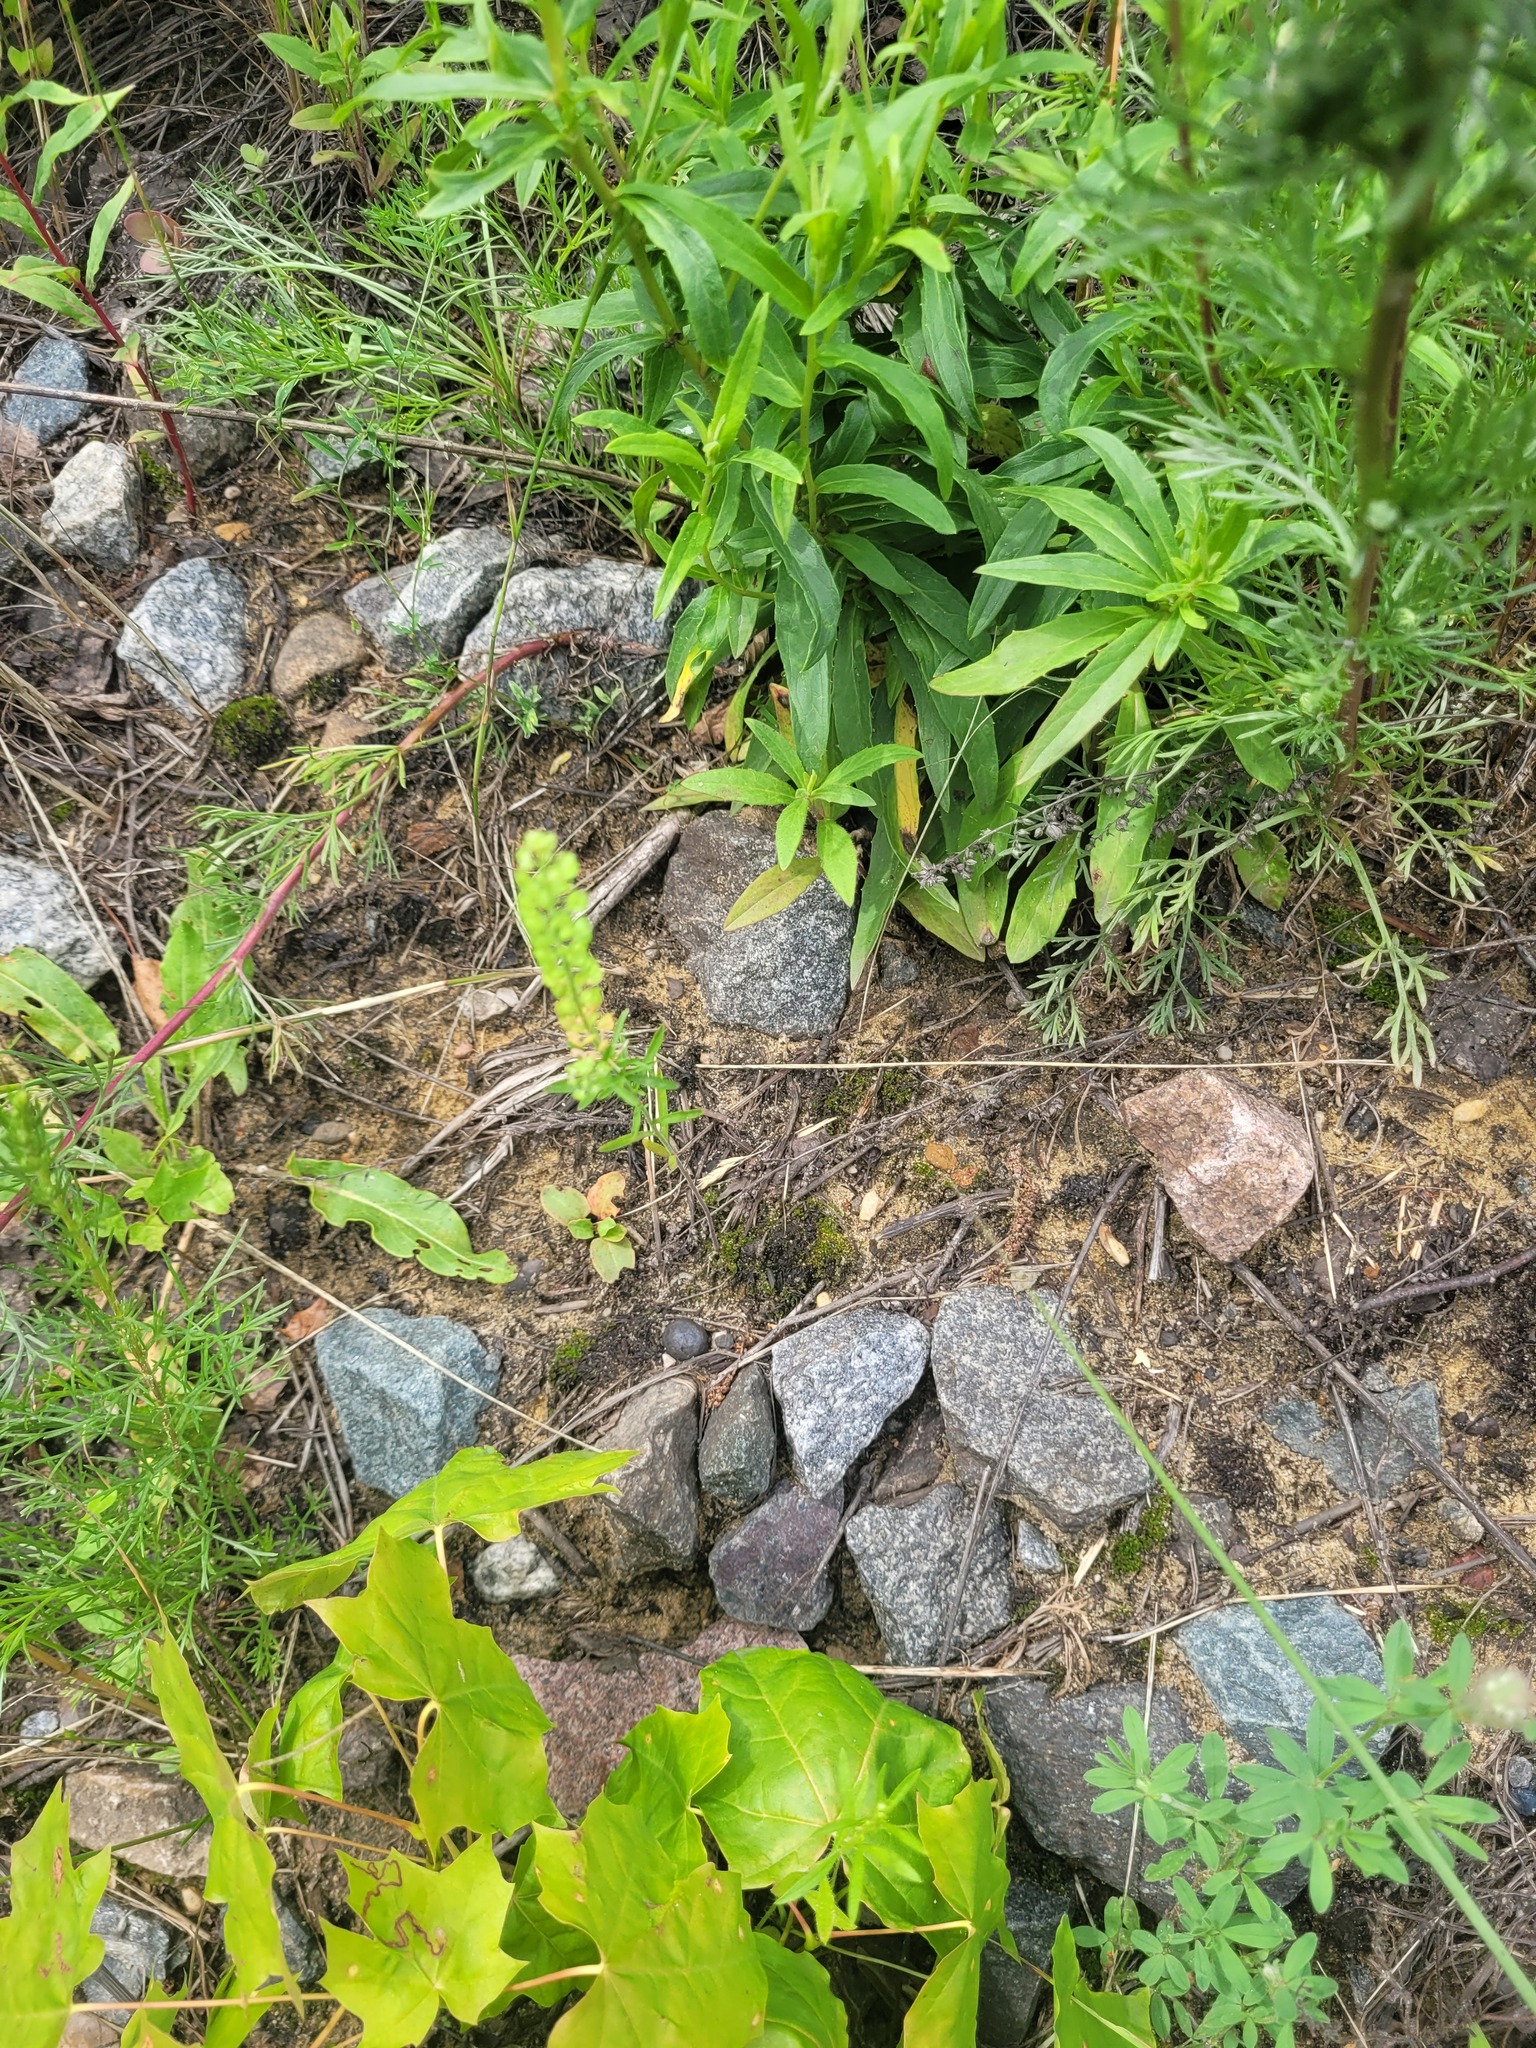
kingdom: Plantae
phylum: Tracheophyta
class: Magnoliopsida
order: Brassicales
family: Brassicaceae
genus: Lepidium
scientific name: Lepidium densiflorum
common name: Miner's pepperwort
